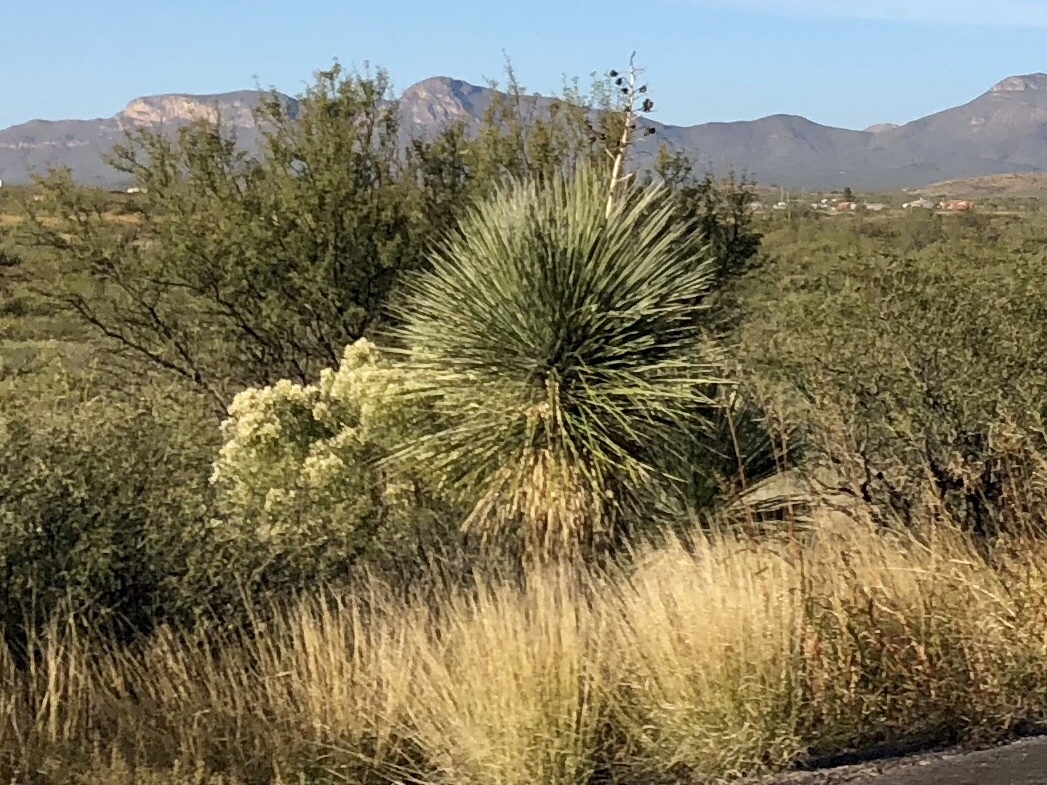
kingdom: Plantae
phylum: Tracheophyta
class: Liliopsida
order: Asparagales
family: Asparagaceae
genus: Yucca
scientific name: Yucca elata
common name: Palmella
